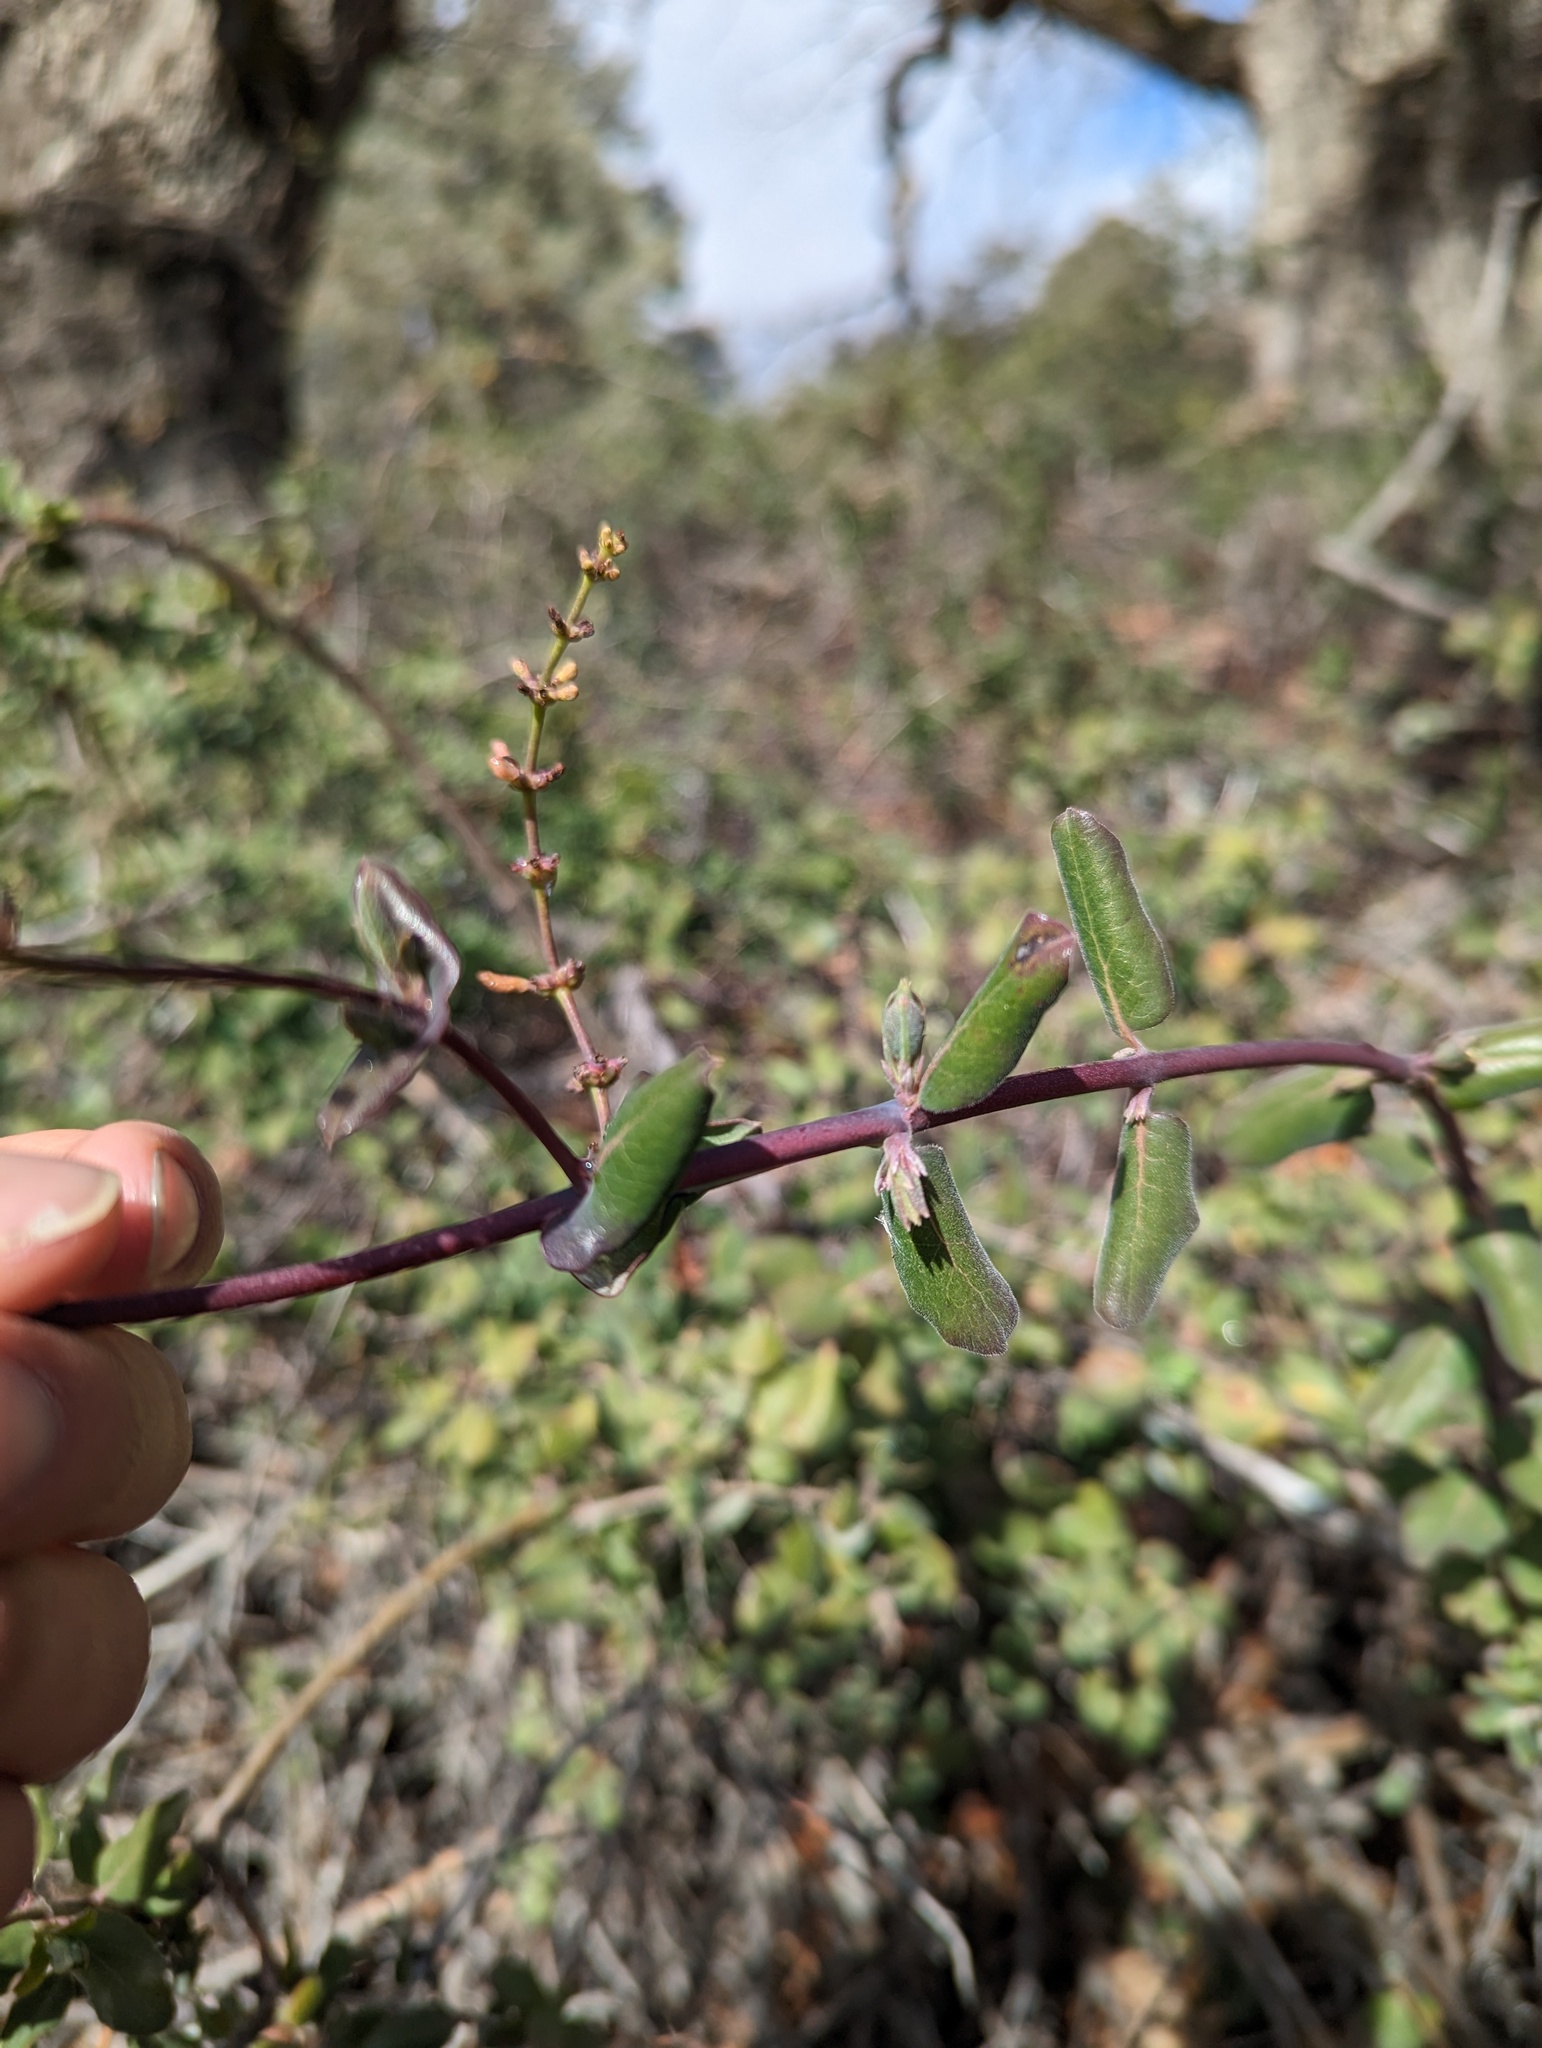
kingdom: Plantae
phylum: Tracheophyta
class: Magnoliopsida
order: Dipsacales
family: Caprifoliaceae
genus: Lonicera
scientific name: Lonicera interrupta
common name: Chaparral honeysuckle
